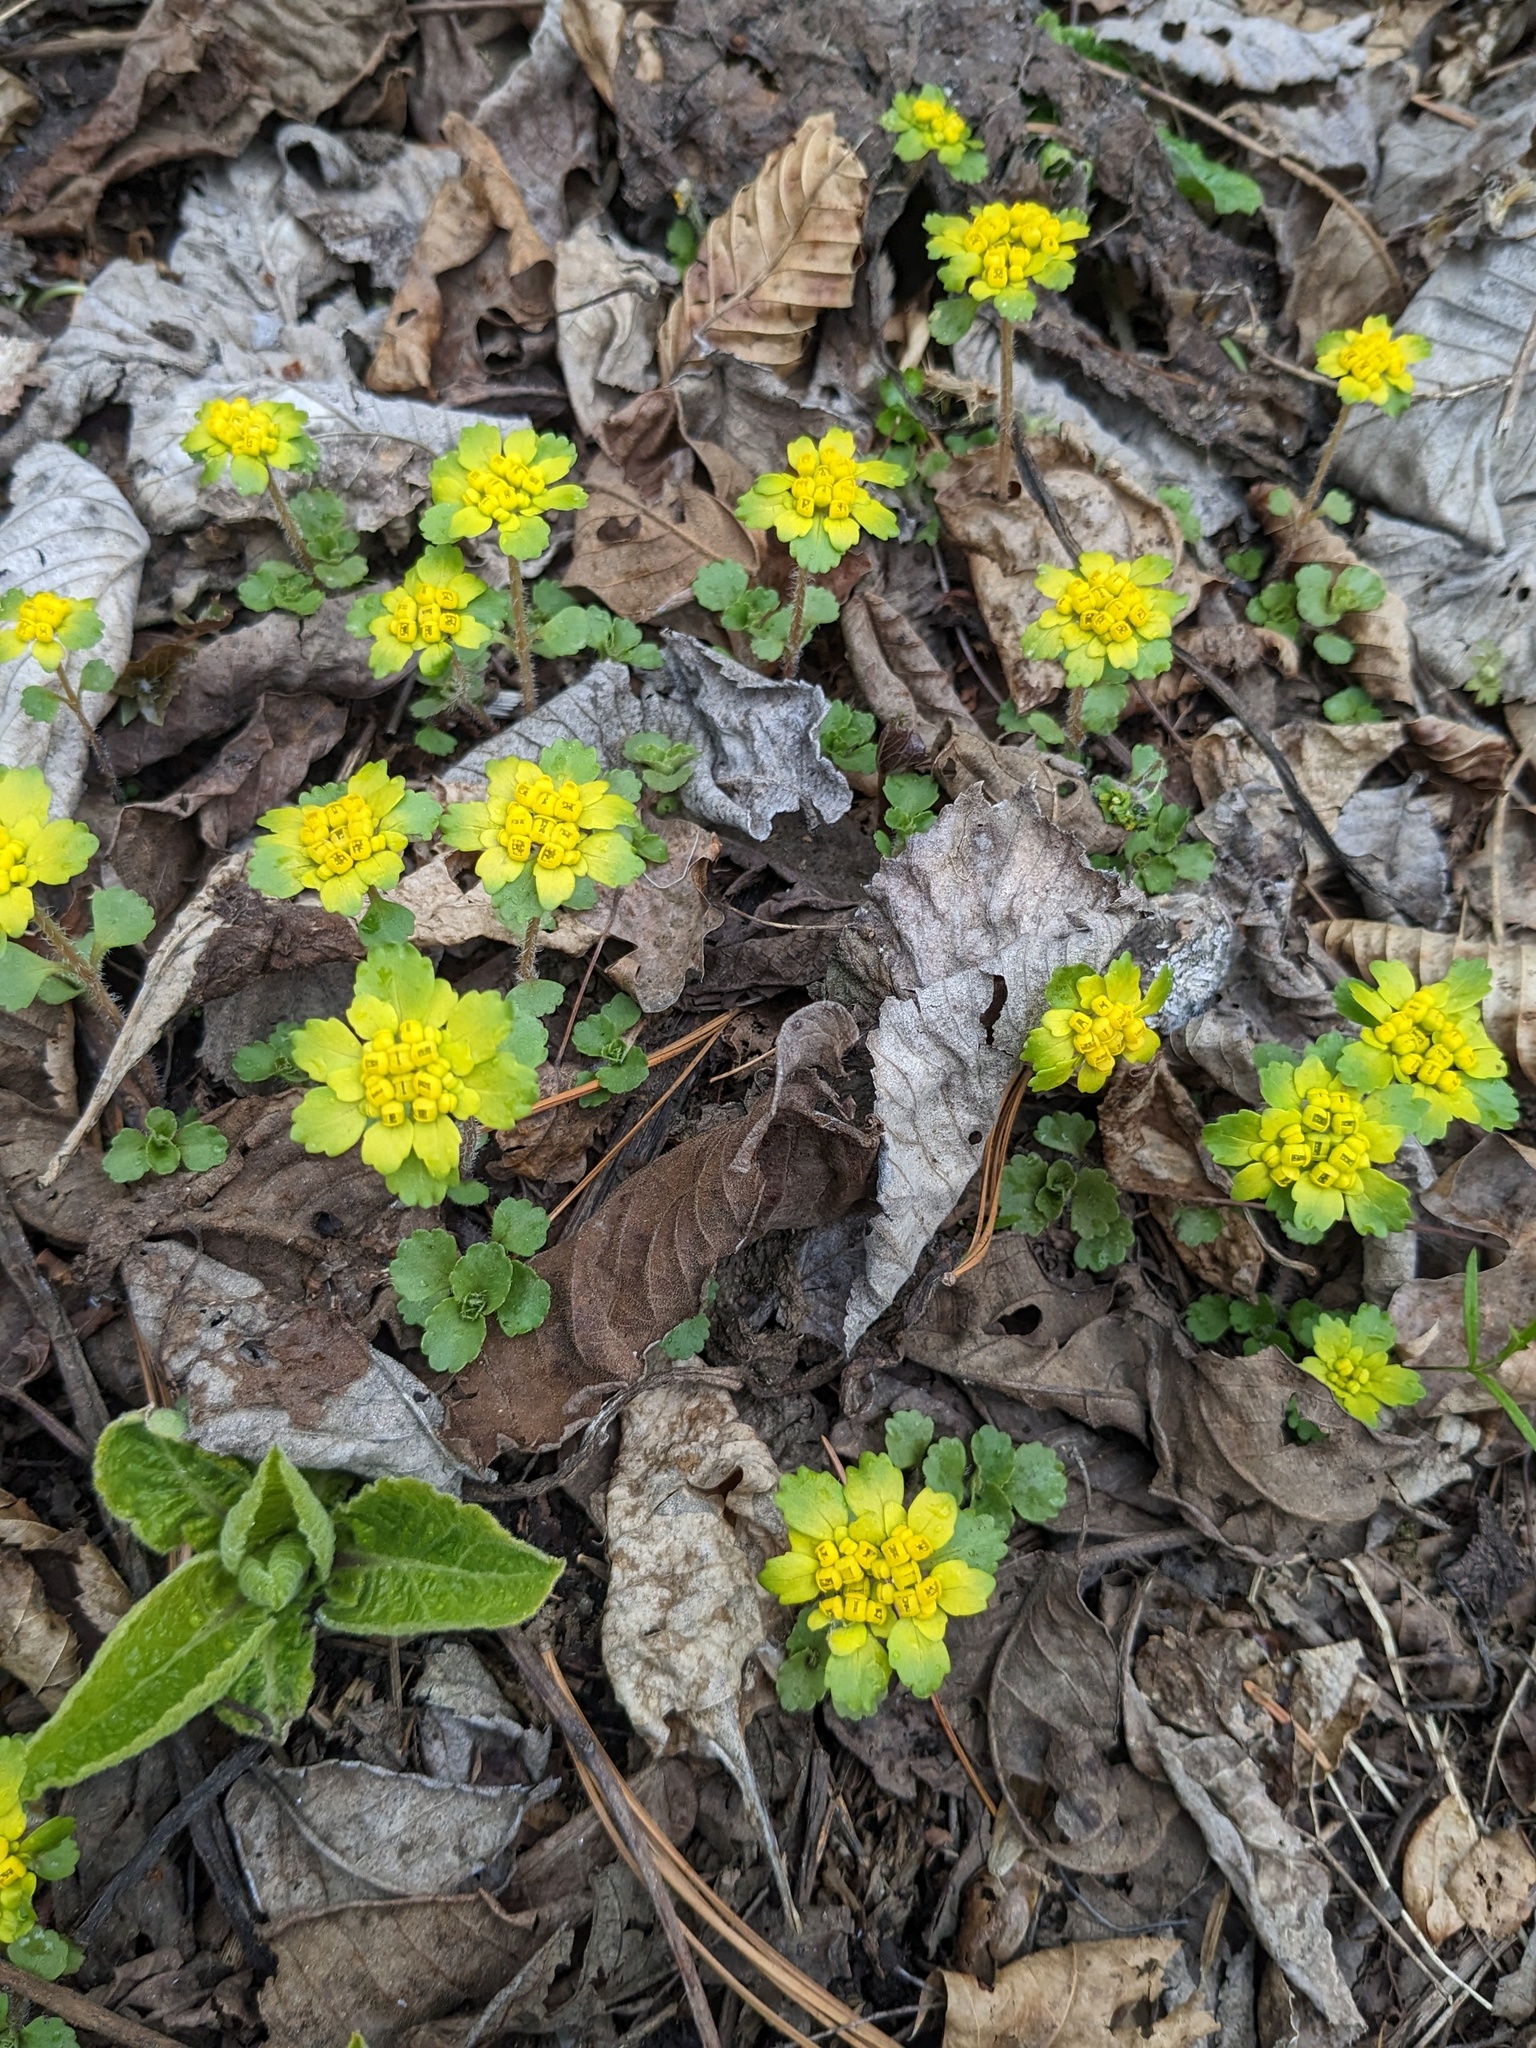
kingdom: Plantae
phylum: Tracheophyta
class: Magnoliopsida
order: Saxifragales
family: Saxifragaceae
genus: Chrysosplenium
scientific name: Chrysosplenium pilosum
